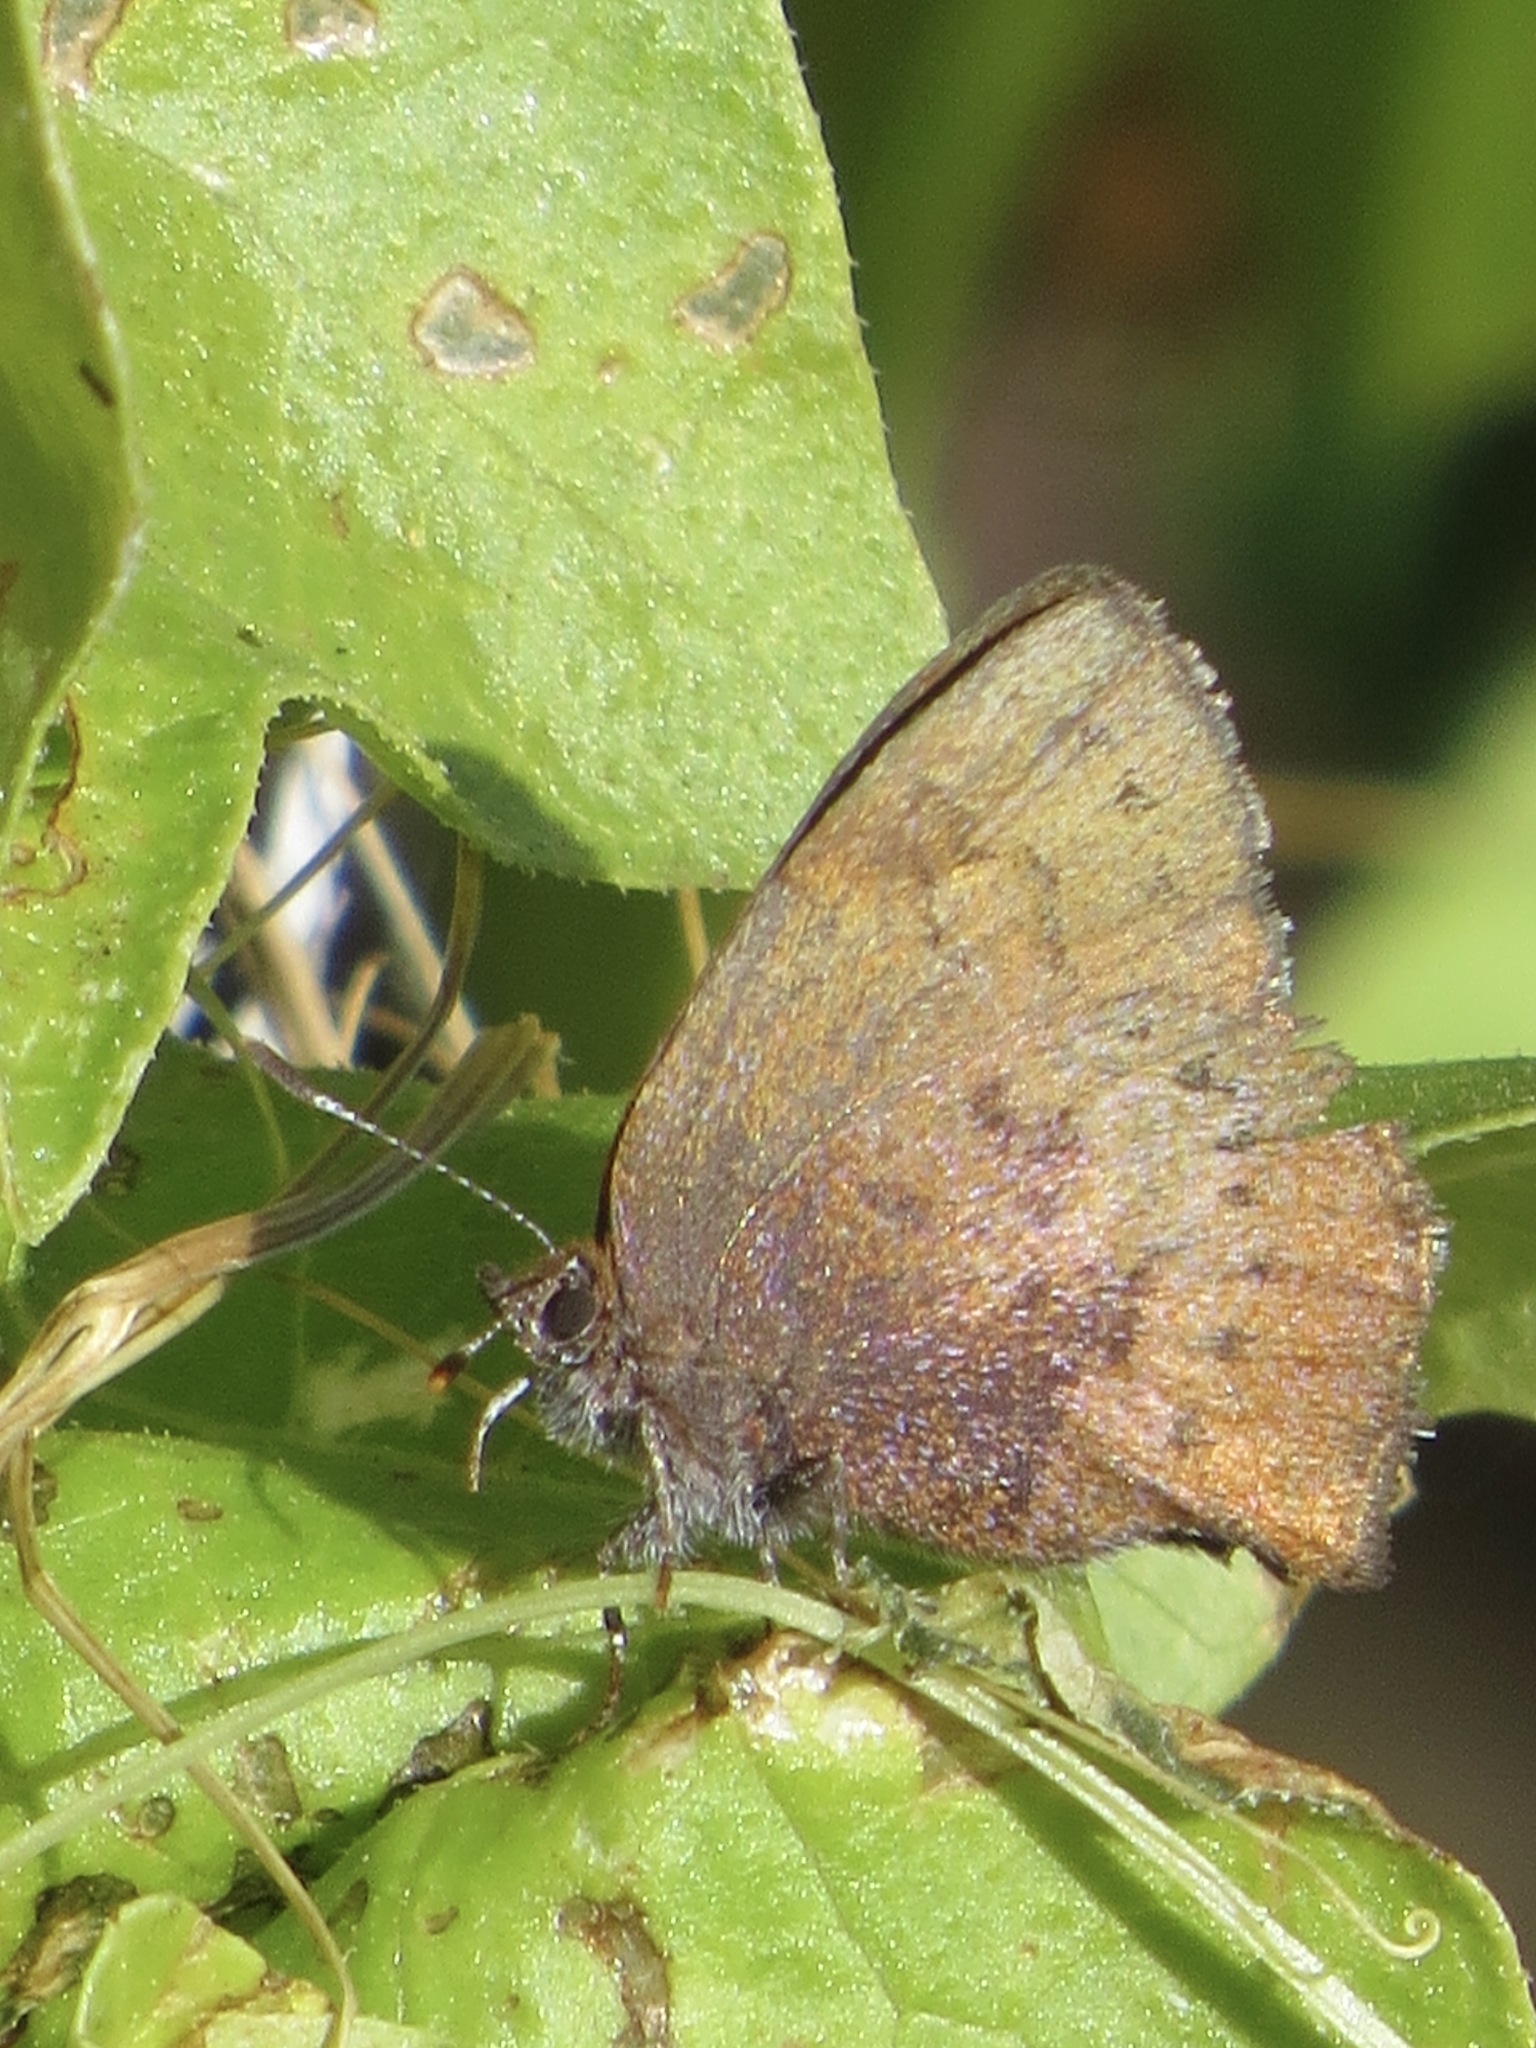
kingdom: Animalia
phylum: Arthropoda
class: Insecta
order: Lepidoptera
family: Lycaenidae
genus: Incisalia
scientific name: Incisalia irioides
